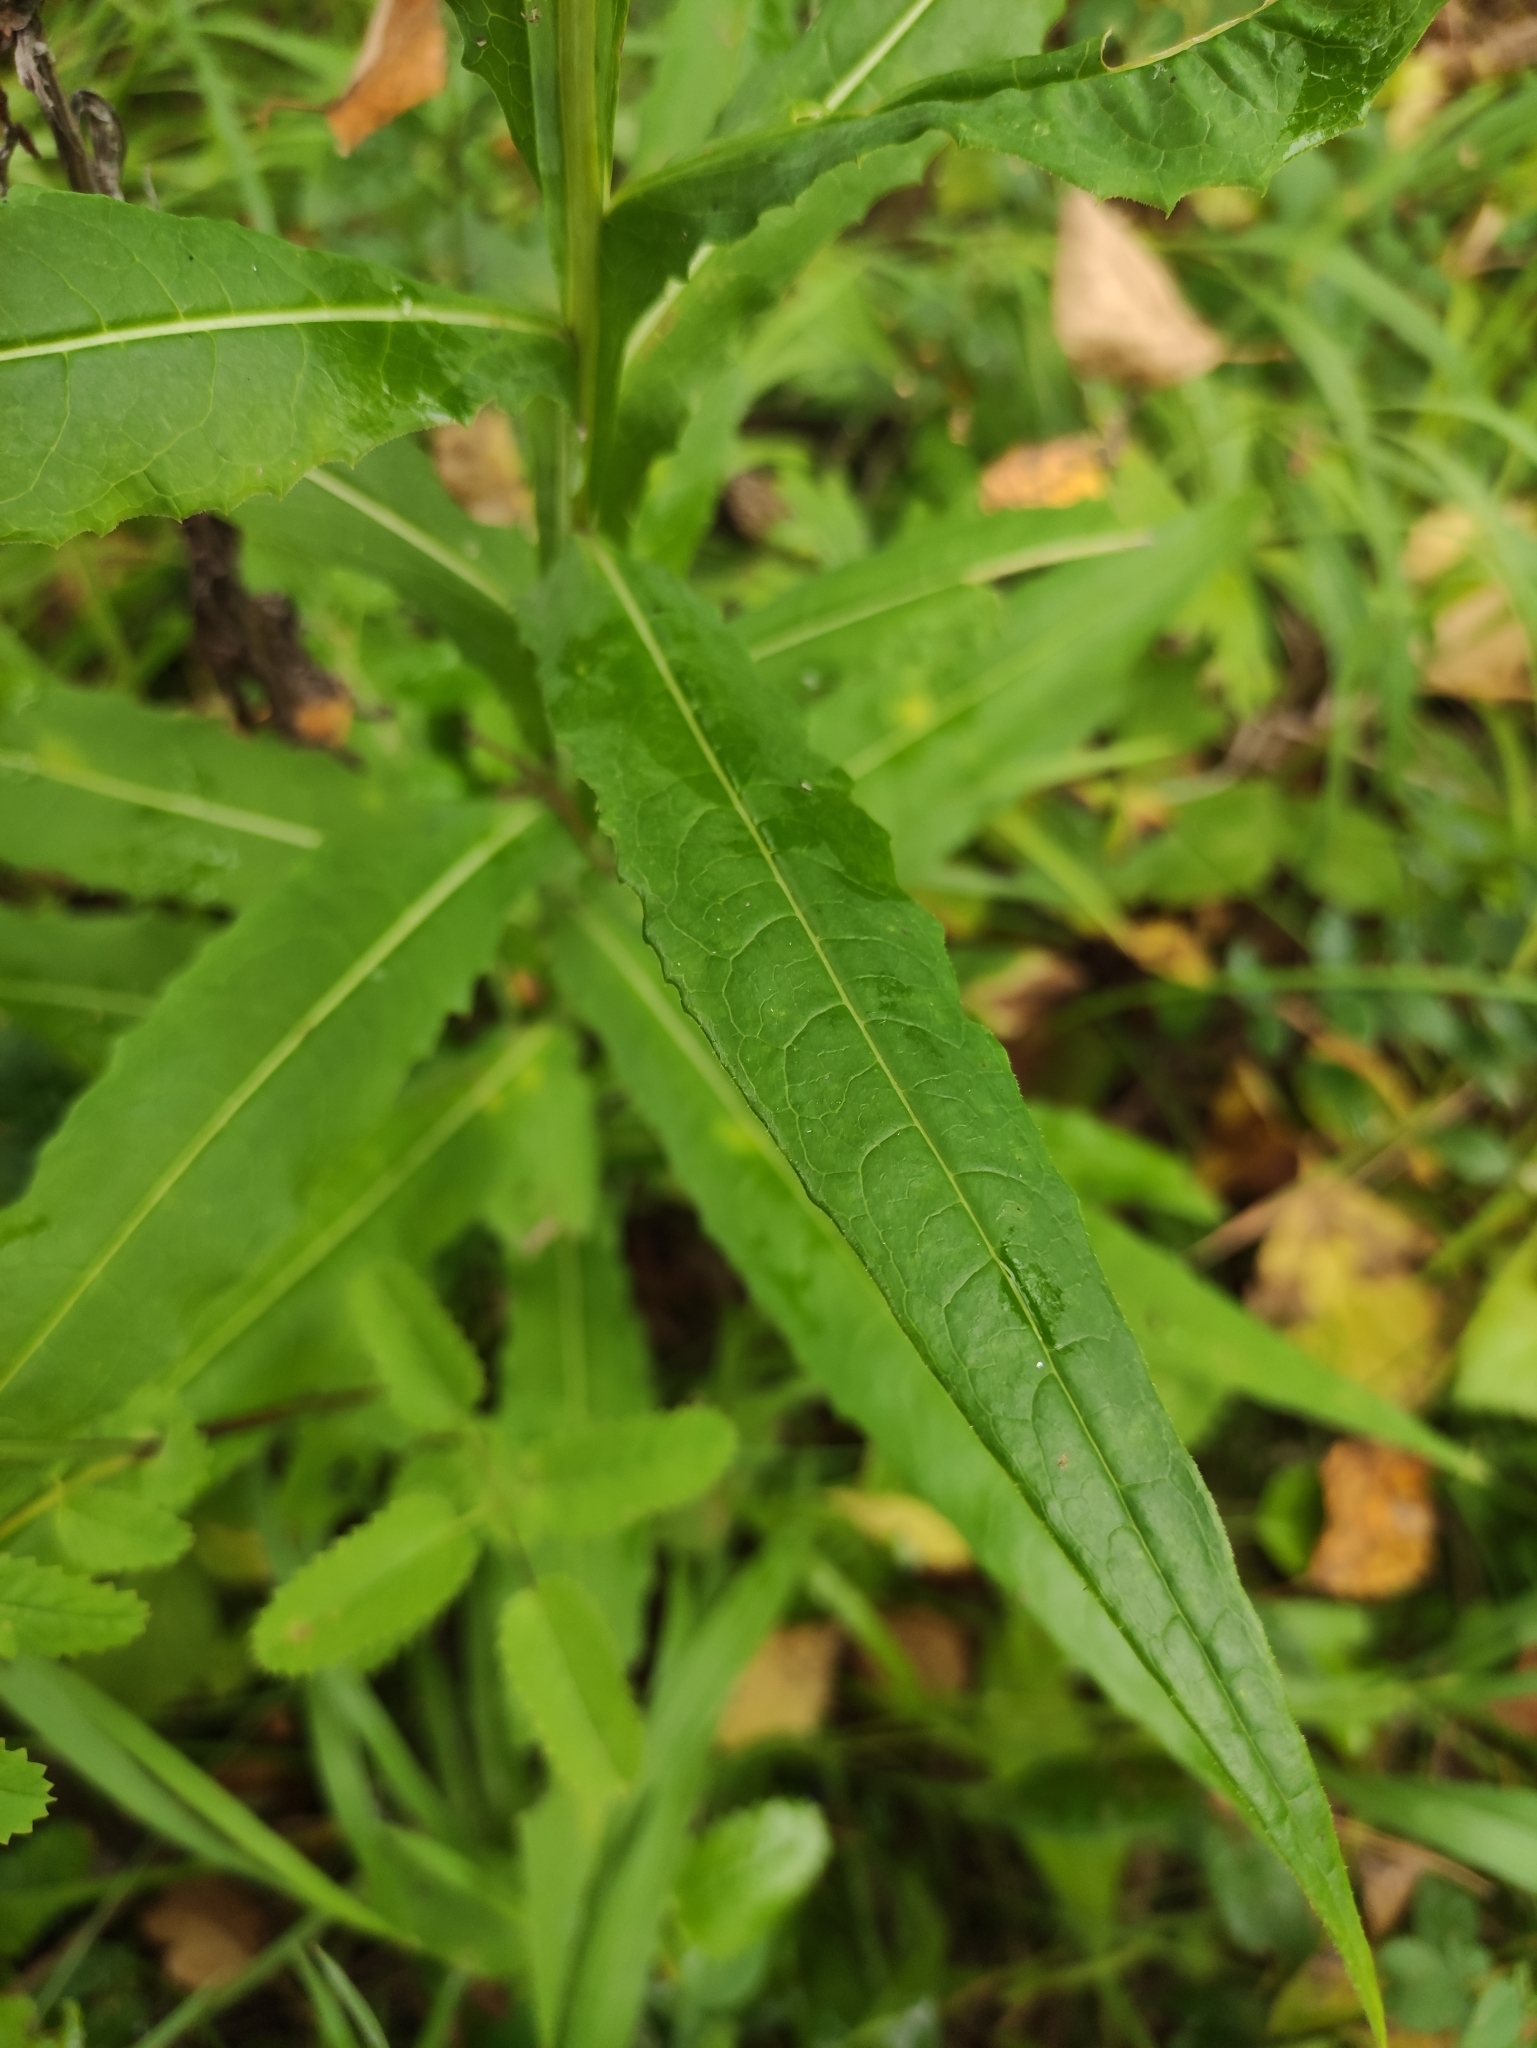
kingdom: Plantae
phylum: Tracheophyta
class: Magnoliopsida
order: Asterales
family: Asteraceae
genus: Cirsium
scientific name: Cirsium serratuloides
